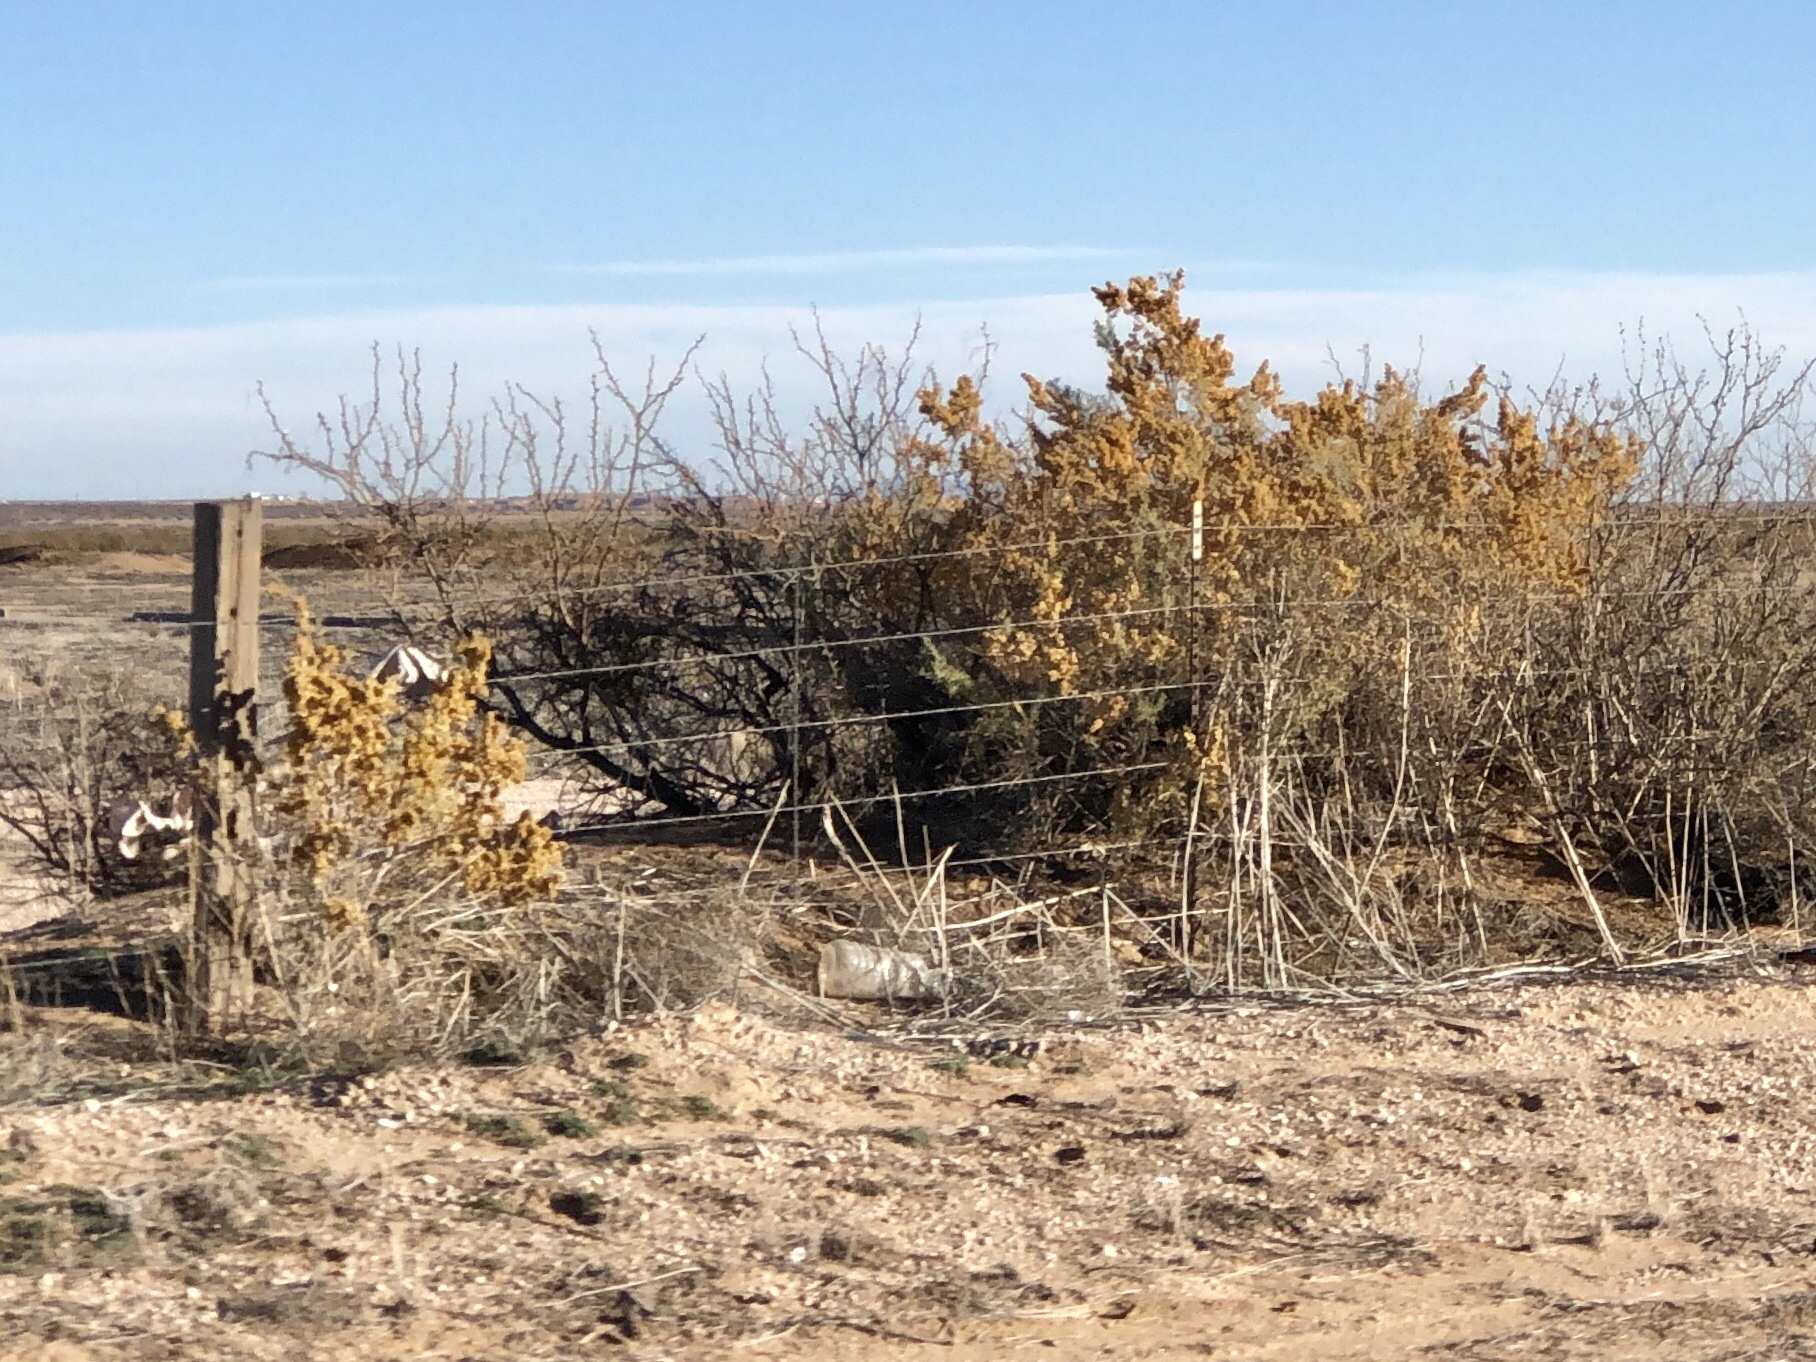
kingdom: Plantae
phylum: Tracheophyta
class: Magnoliopsida
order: Caryophyllales
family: Amaranthaceae
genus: Atriplex
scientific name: Atriplex canescens
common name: Four-wing saltbush
